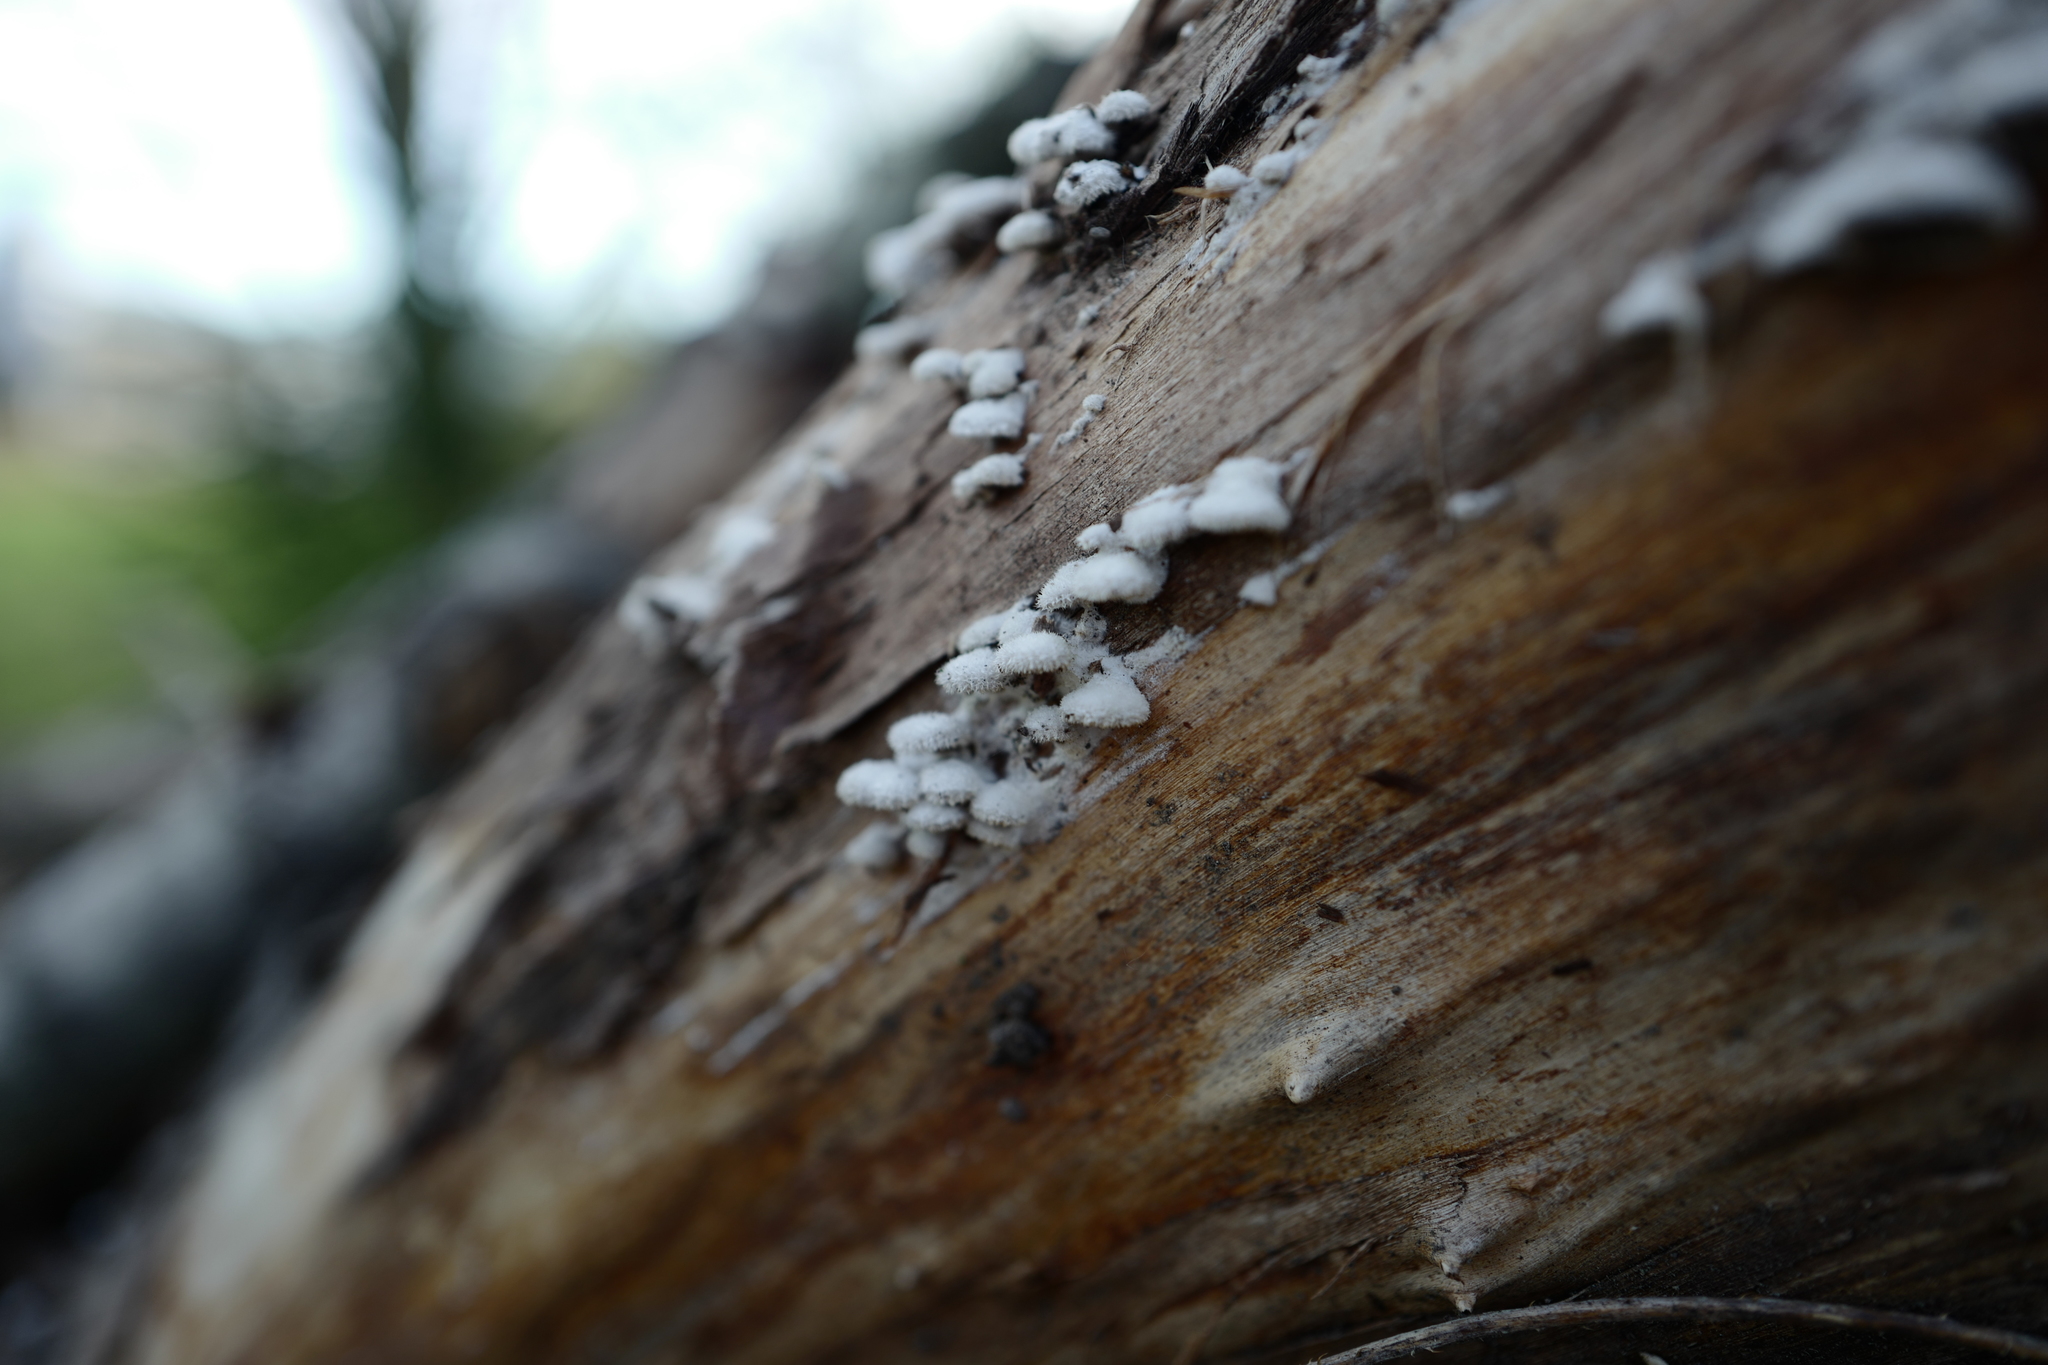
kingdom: Fungi
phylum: Basidiomycota
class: Agaricomycetes
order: Agaricales
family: Schizophyllaceae
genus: Schizophyllum
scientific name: Schizophyllum commune
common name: Common porecrust
